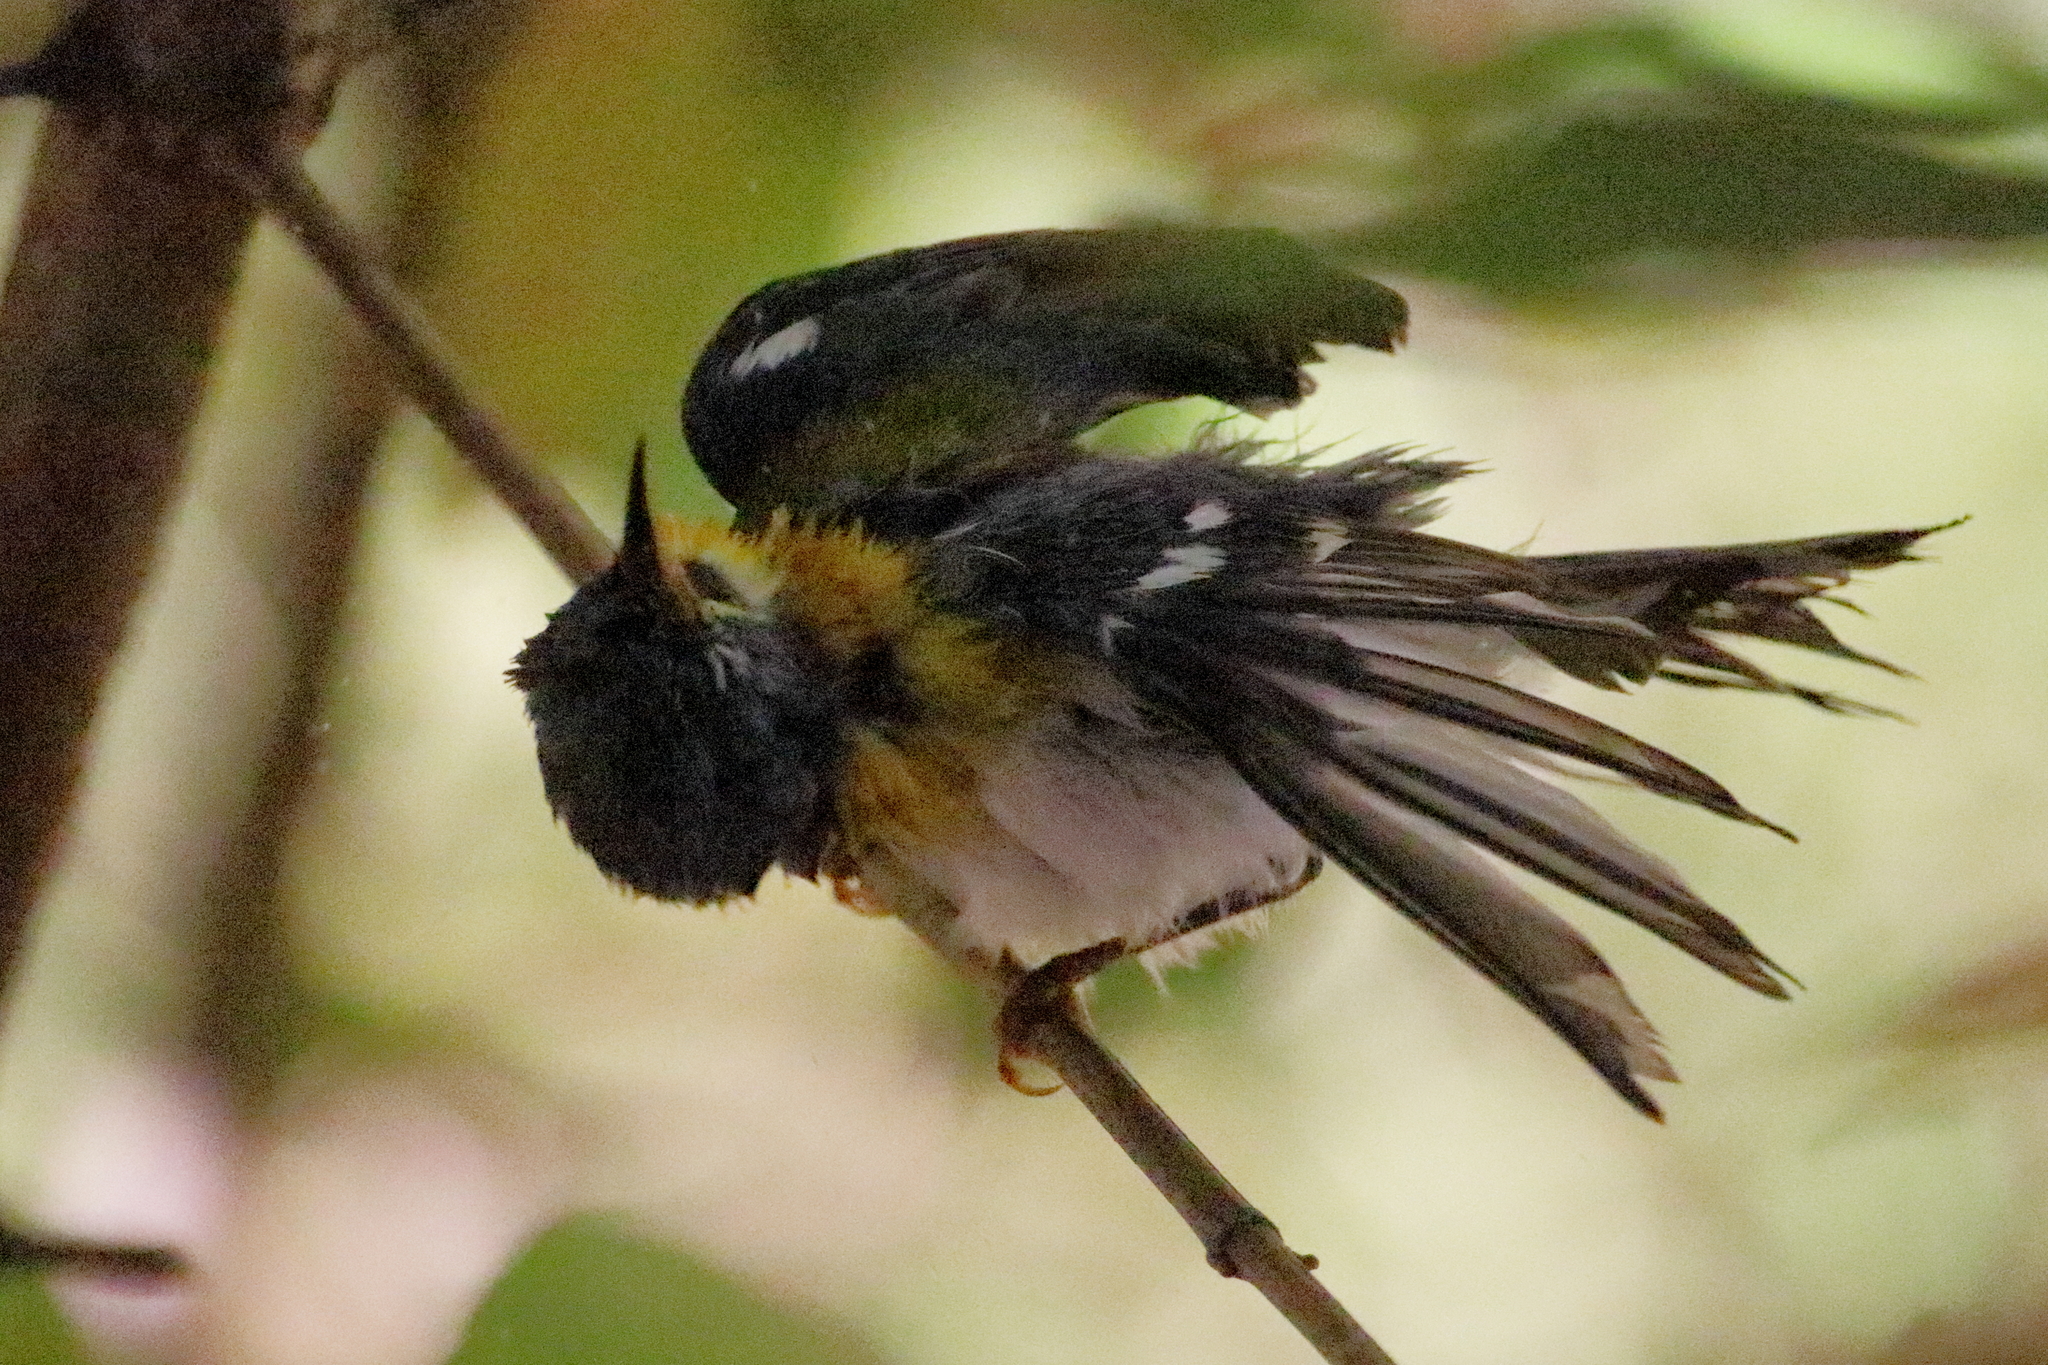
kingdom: Animalia
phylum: Chordata
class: Aves
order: Passeriformes
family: Parulidae
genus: Setophaga
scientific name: Setophaga americana
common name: Northern parula
